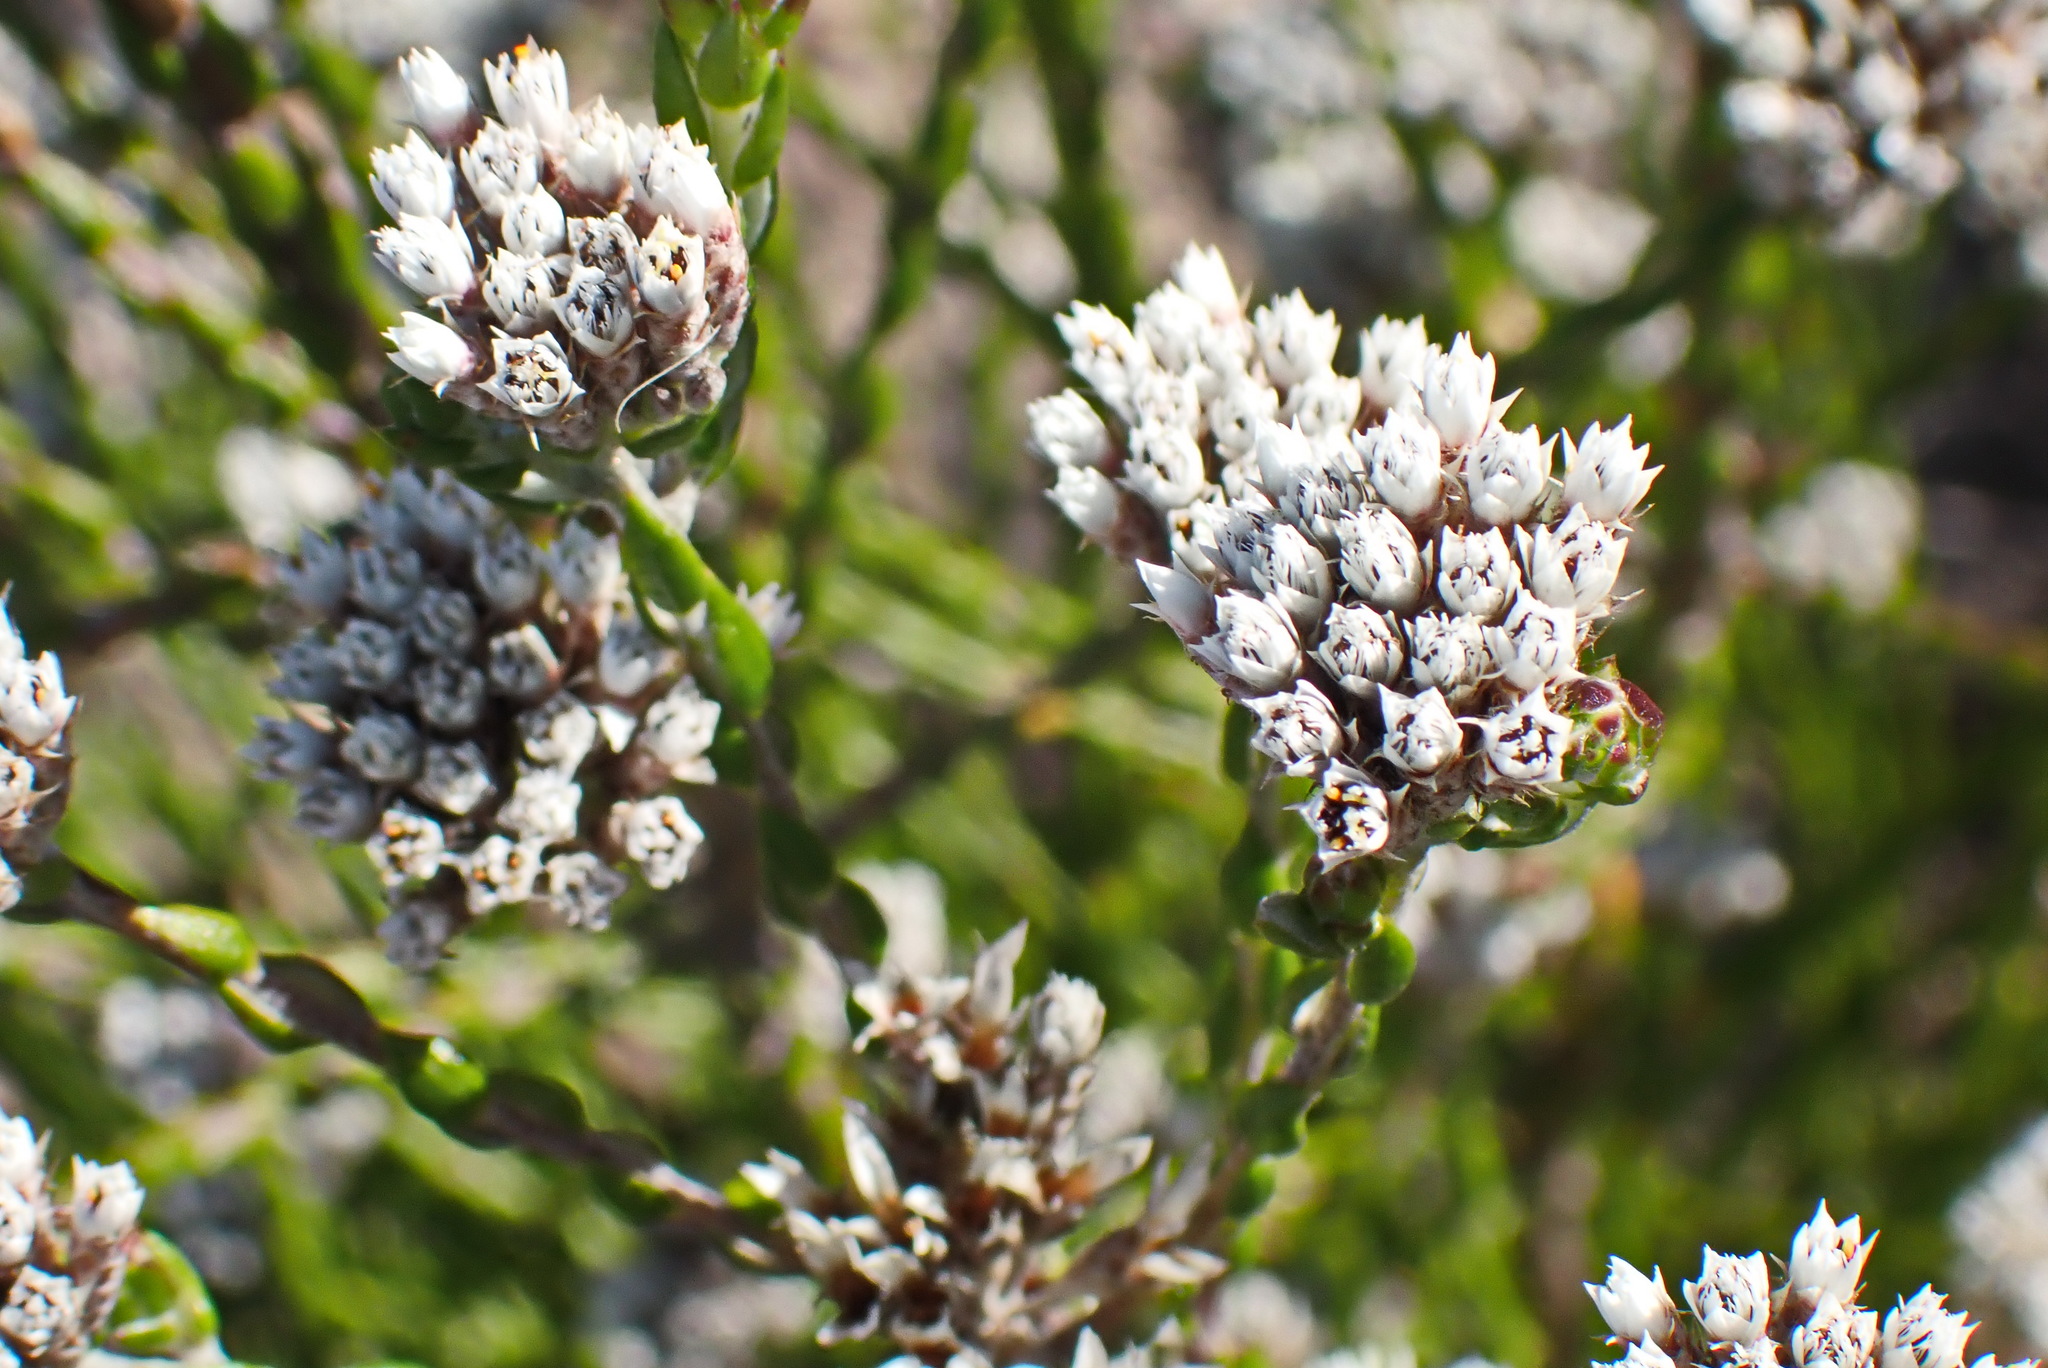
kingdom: Plantae
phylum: Tracheophyta
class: Magnoliopsida
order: Asterales
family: Asteraceae
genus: Metalasia
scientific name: Metalasia pulcherrima
